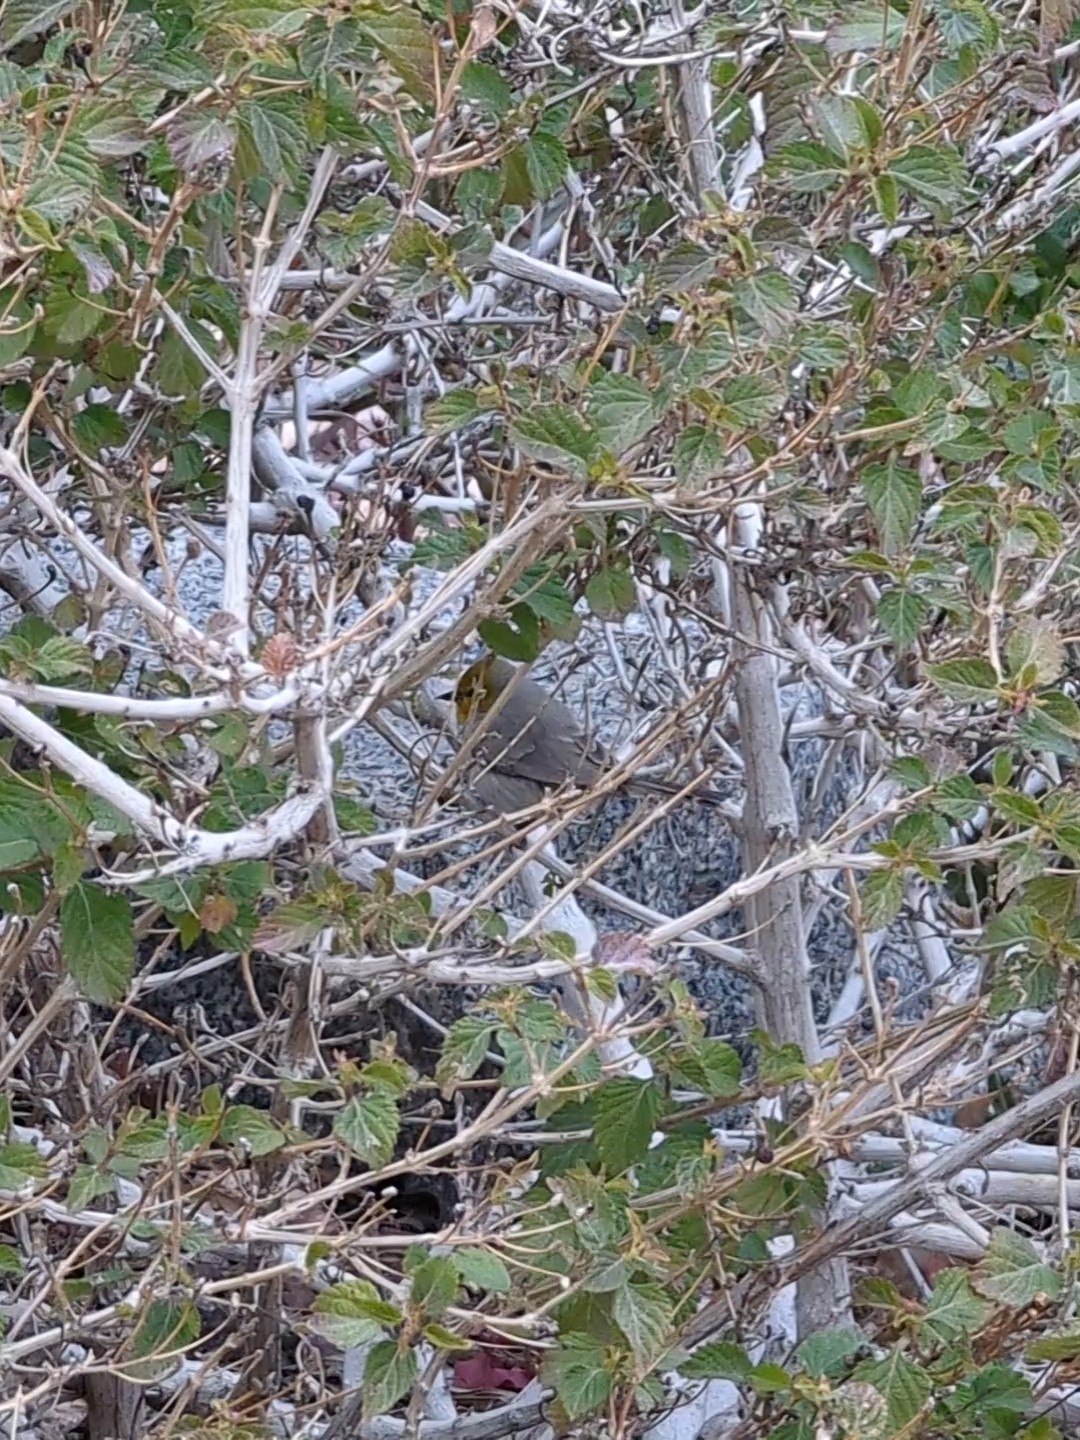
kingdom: Animalia
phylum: Chordata
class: Aves
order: Passeriformes
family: Remizidae
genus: Auriparus
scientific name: Auriparus flaviceps
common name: Verdin
